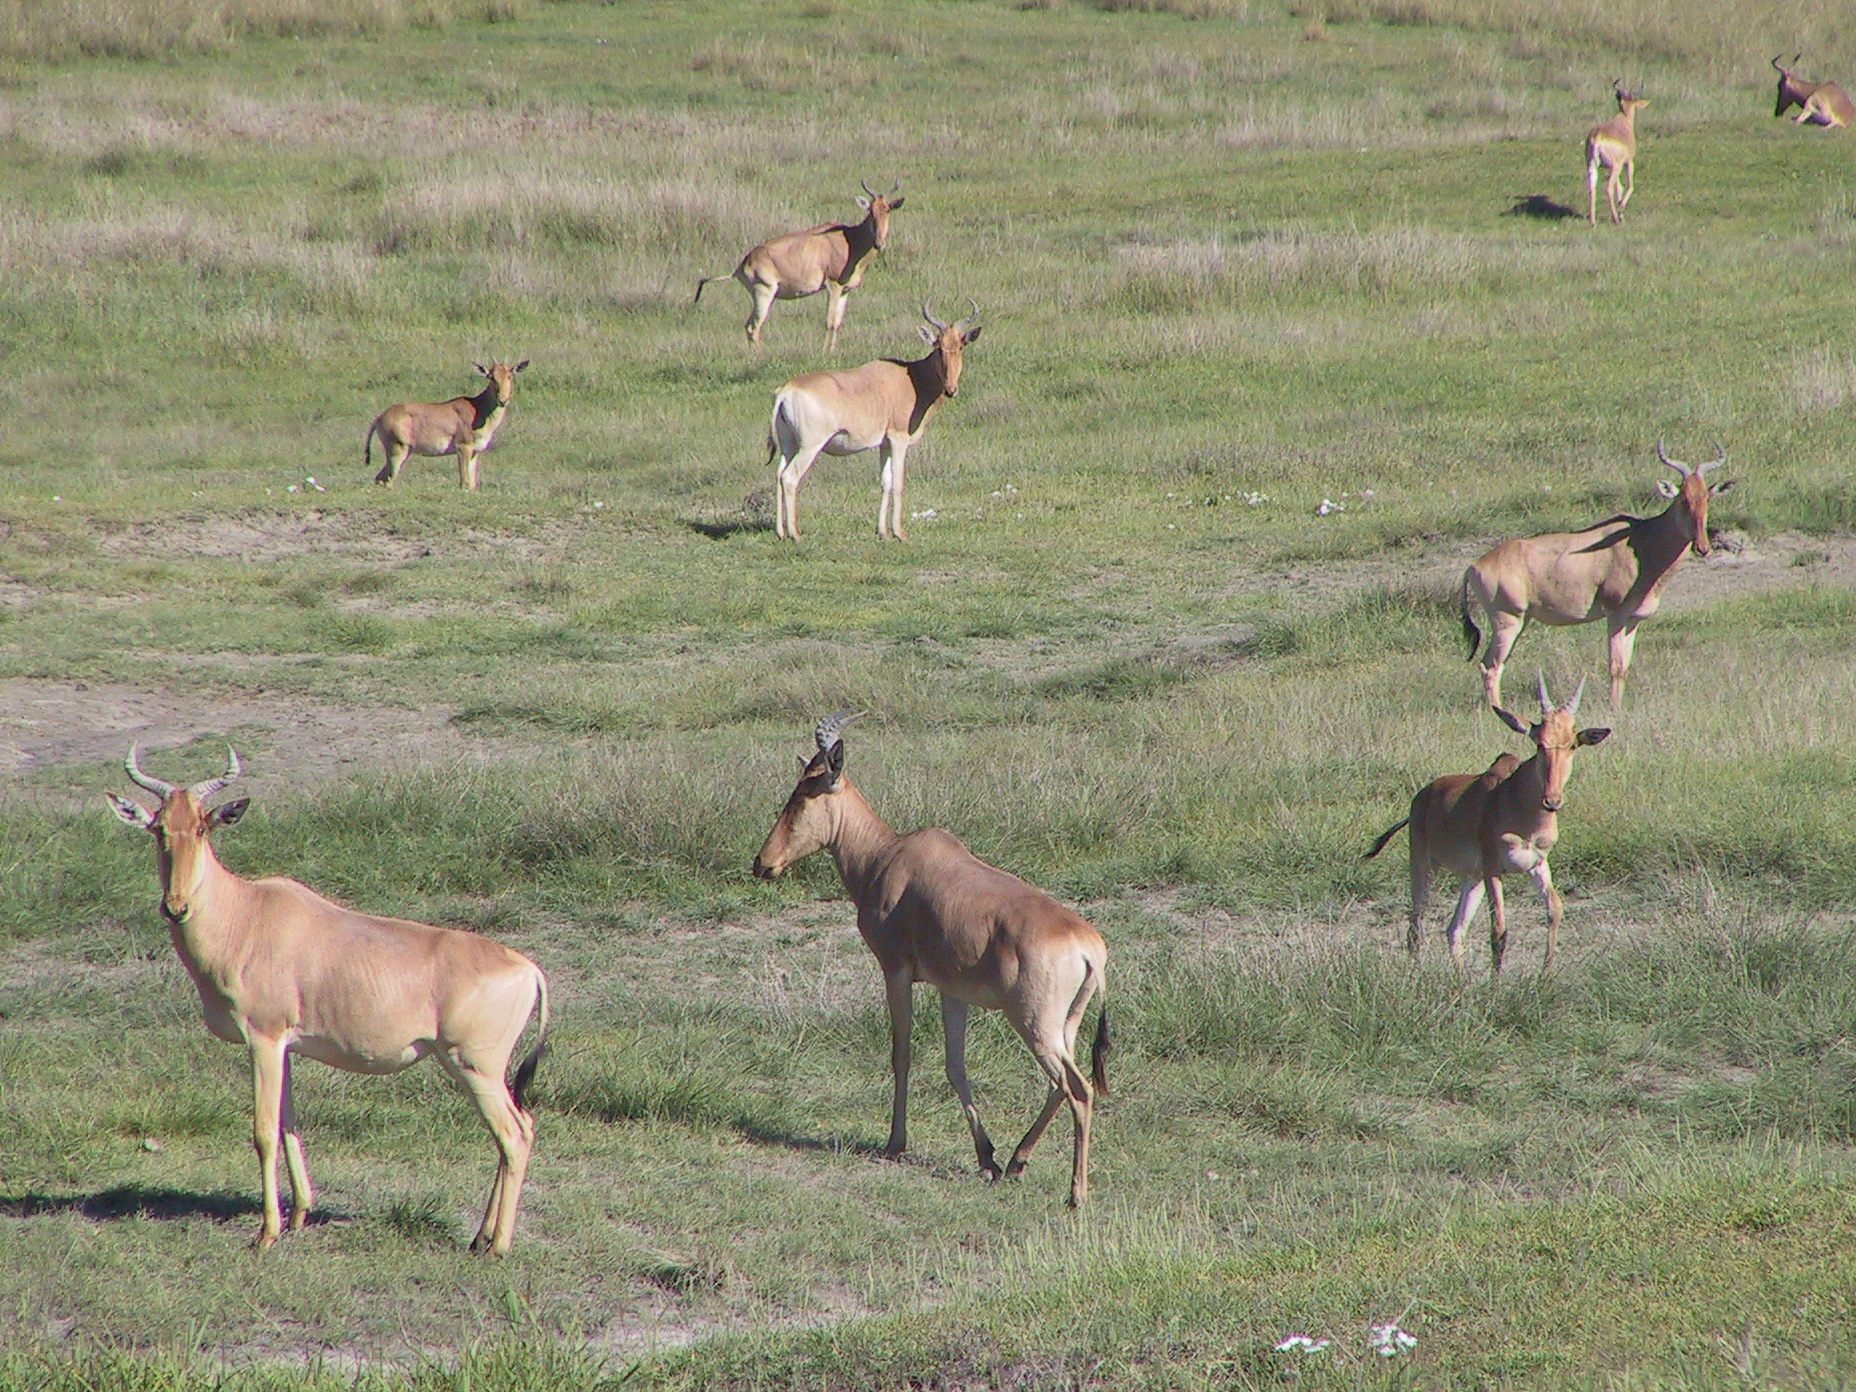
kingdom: Animalia
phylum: Chordata
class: Mammalia
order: Artiodactyla
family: Bovidae
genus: Alcelaphus
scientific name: Alcelaphus buselaphus
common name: Hartebeest
